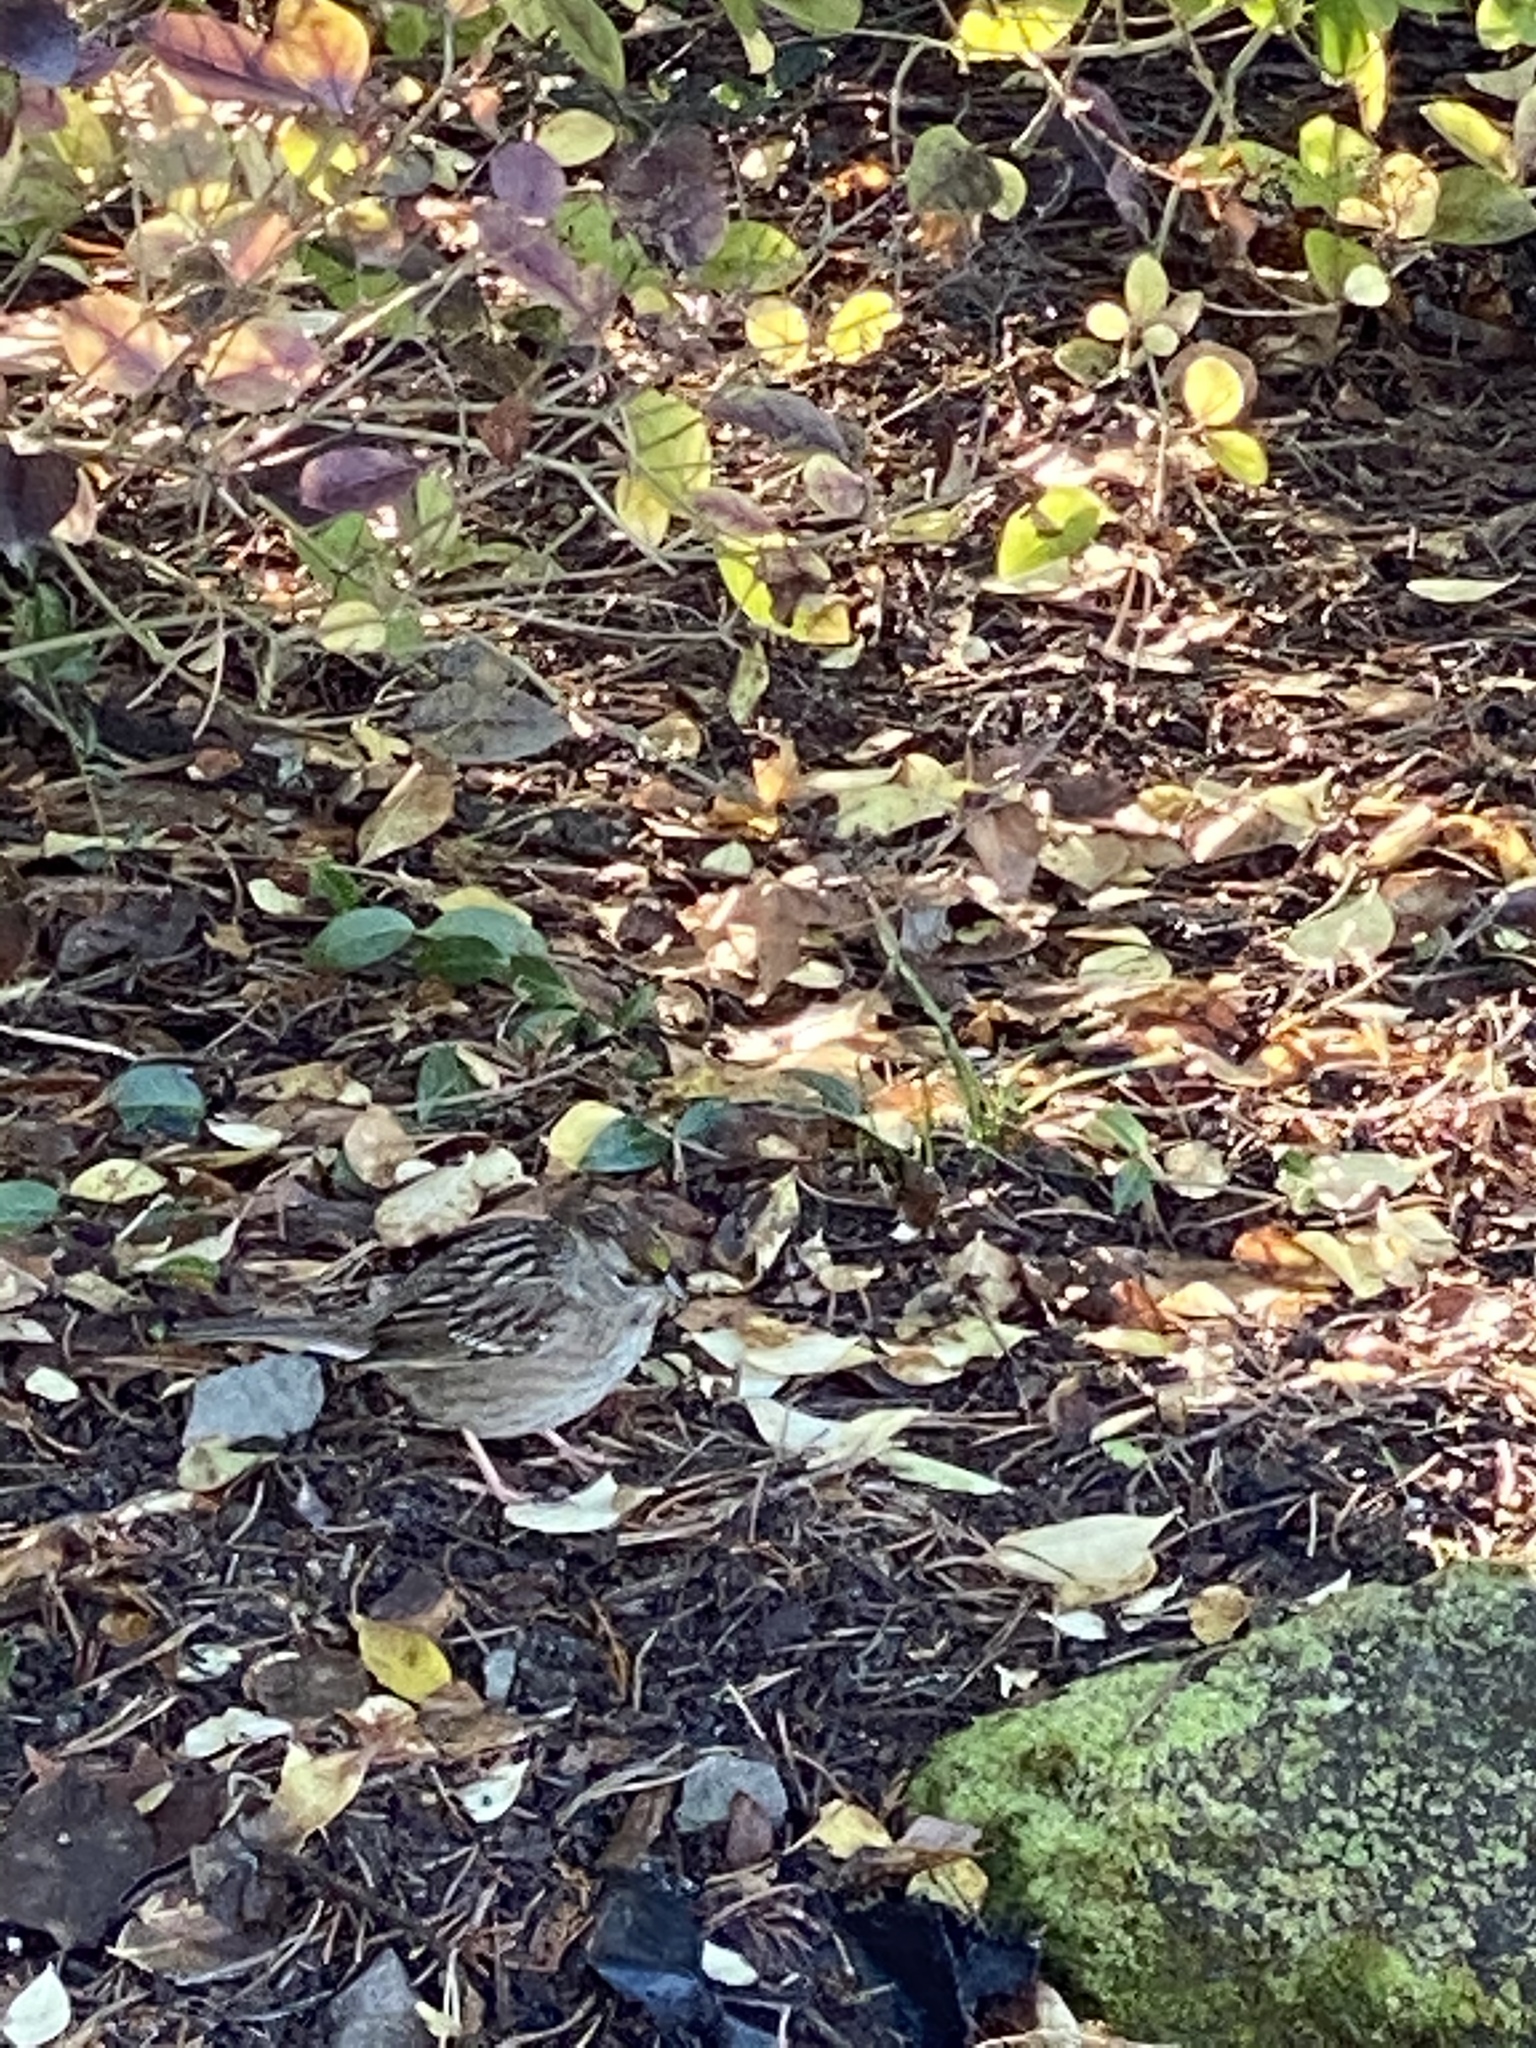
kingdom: Animalia
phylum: Chordata
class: Aves
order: Passeriformes
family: Passerellidae
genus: Zonotrichia
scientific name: Zonotrichia atricapilla
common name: Golden-crowned sparrow
